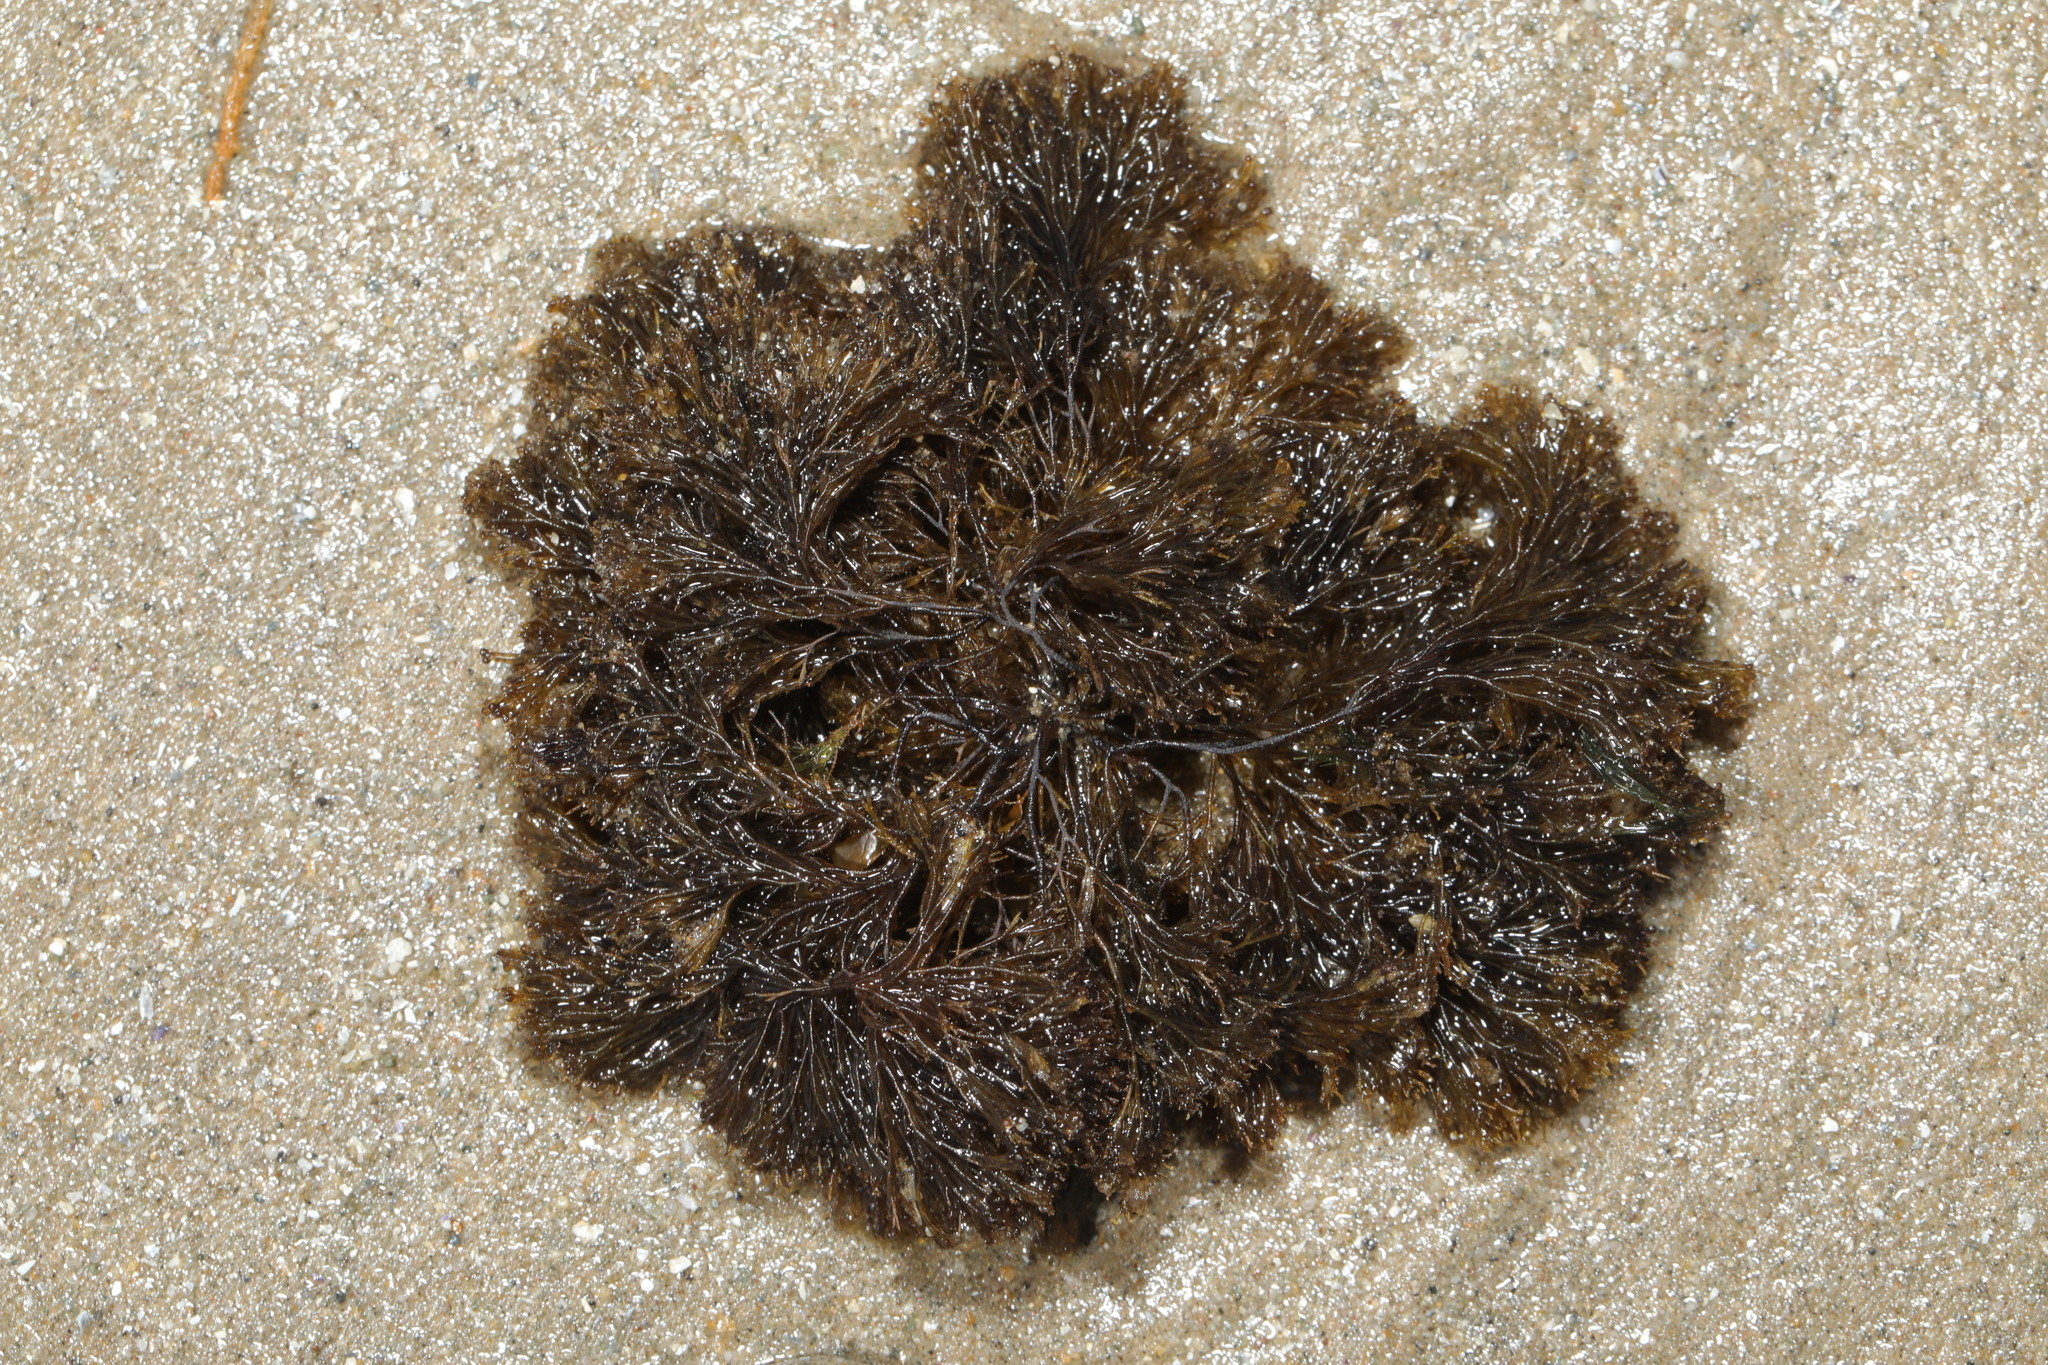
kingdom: Plantae
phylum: Rhodophyta
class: Florideophyceae
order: Ceramiales
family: Rhodomelaceae
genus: Vertebrata
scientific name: Vertebrata lanosa
